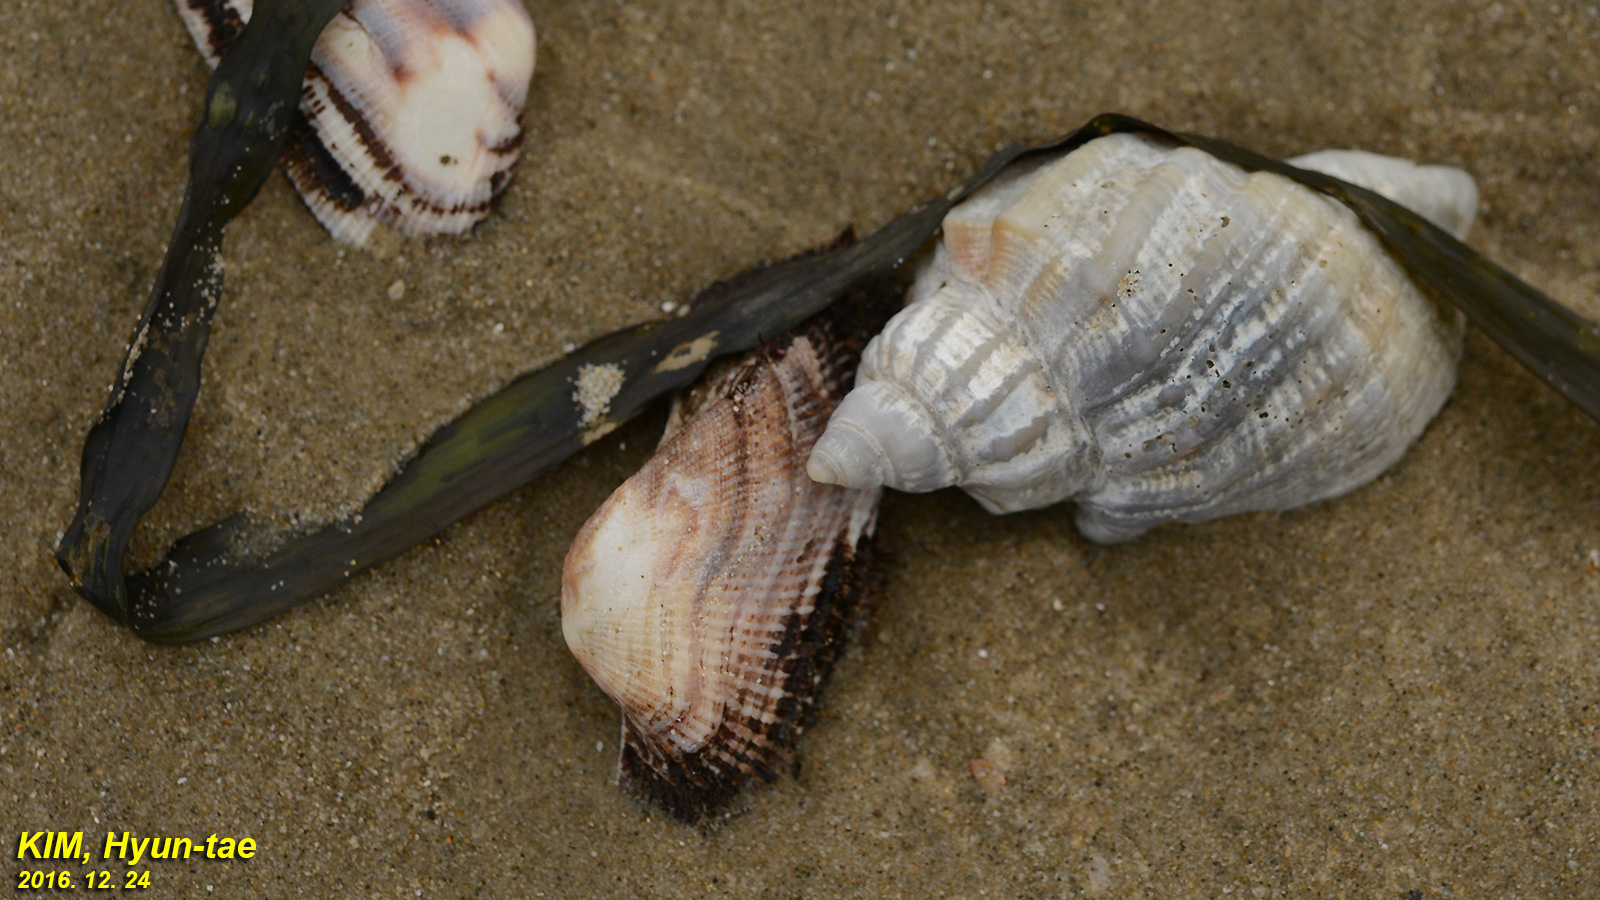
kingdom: Animalia
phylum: Mollusca
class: Gastropoda
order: Neogastropoda
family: Cancellariidae
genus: Sydaphera
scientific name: Sydaphera spengleriana
